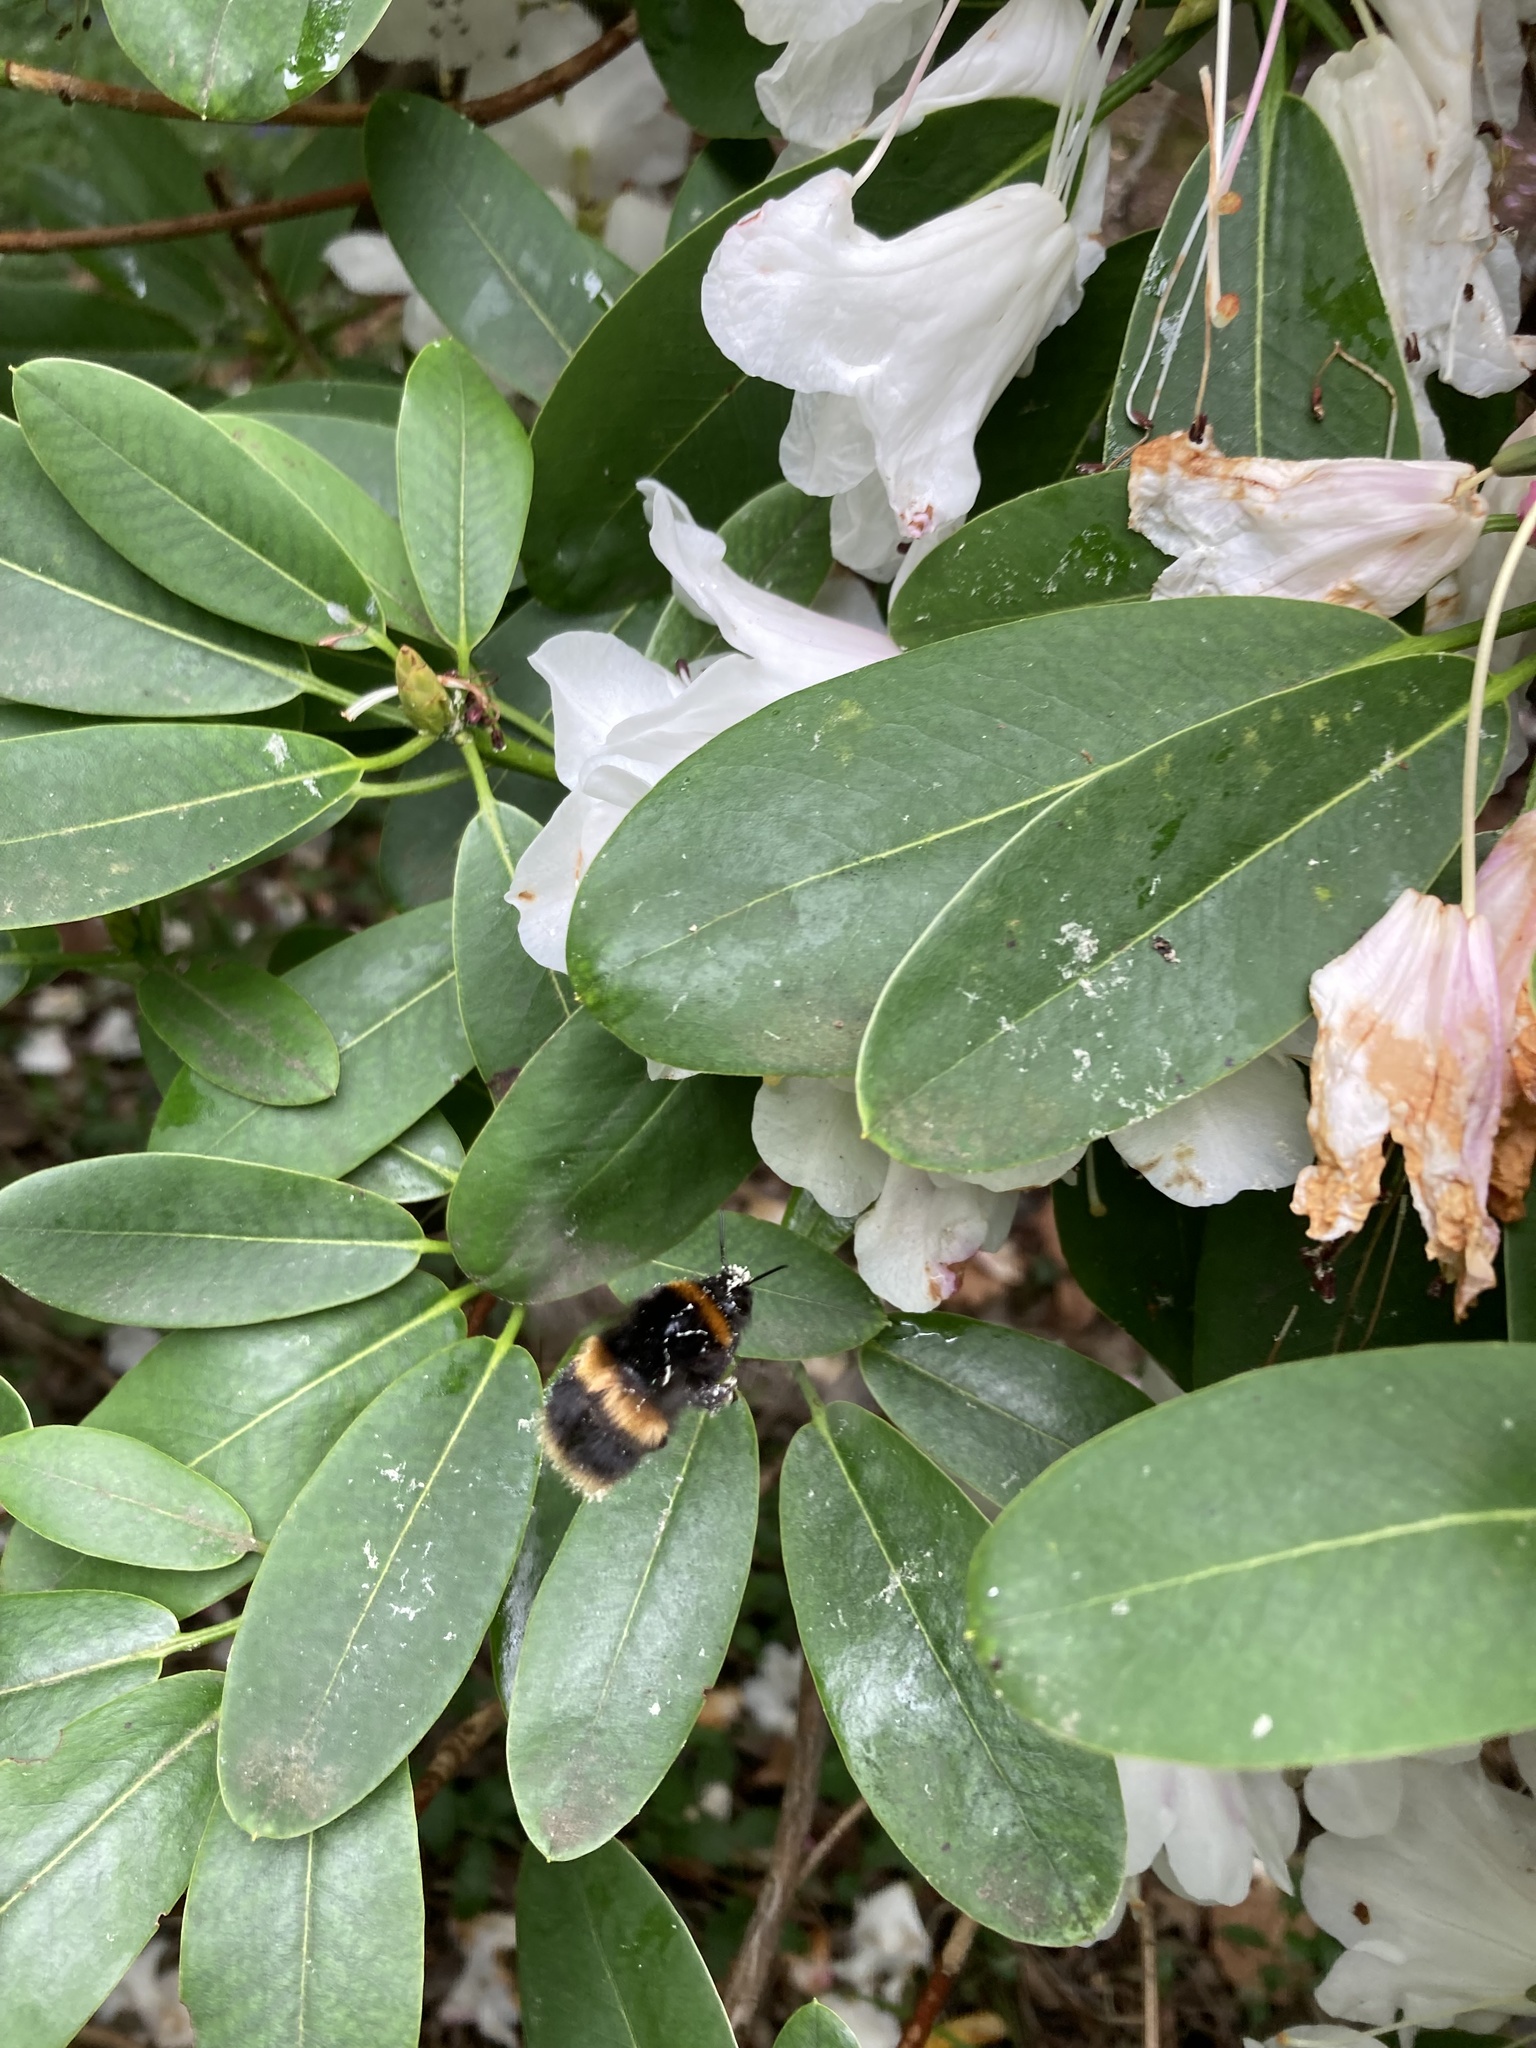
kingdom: Animalia
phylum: Arthropoda
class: Insecta
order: Hymenoptera
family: Apidae
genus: Bombus
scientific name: Bombus terrestris
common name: Buff-tailed bumblebee
